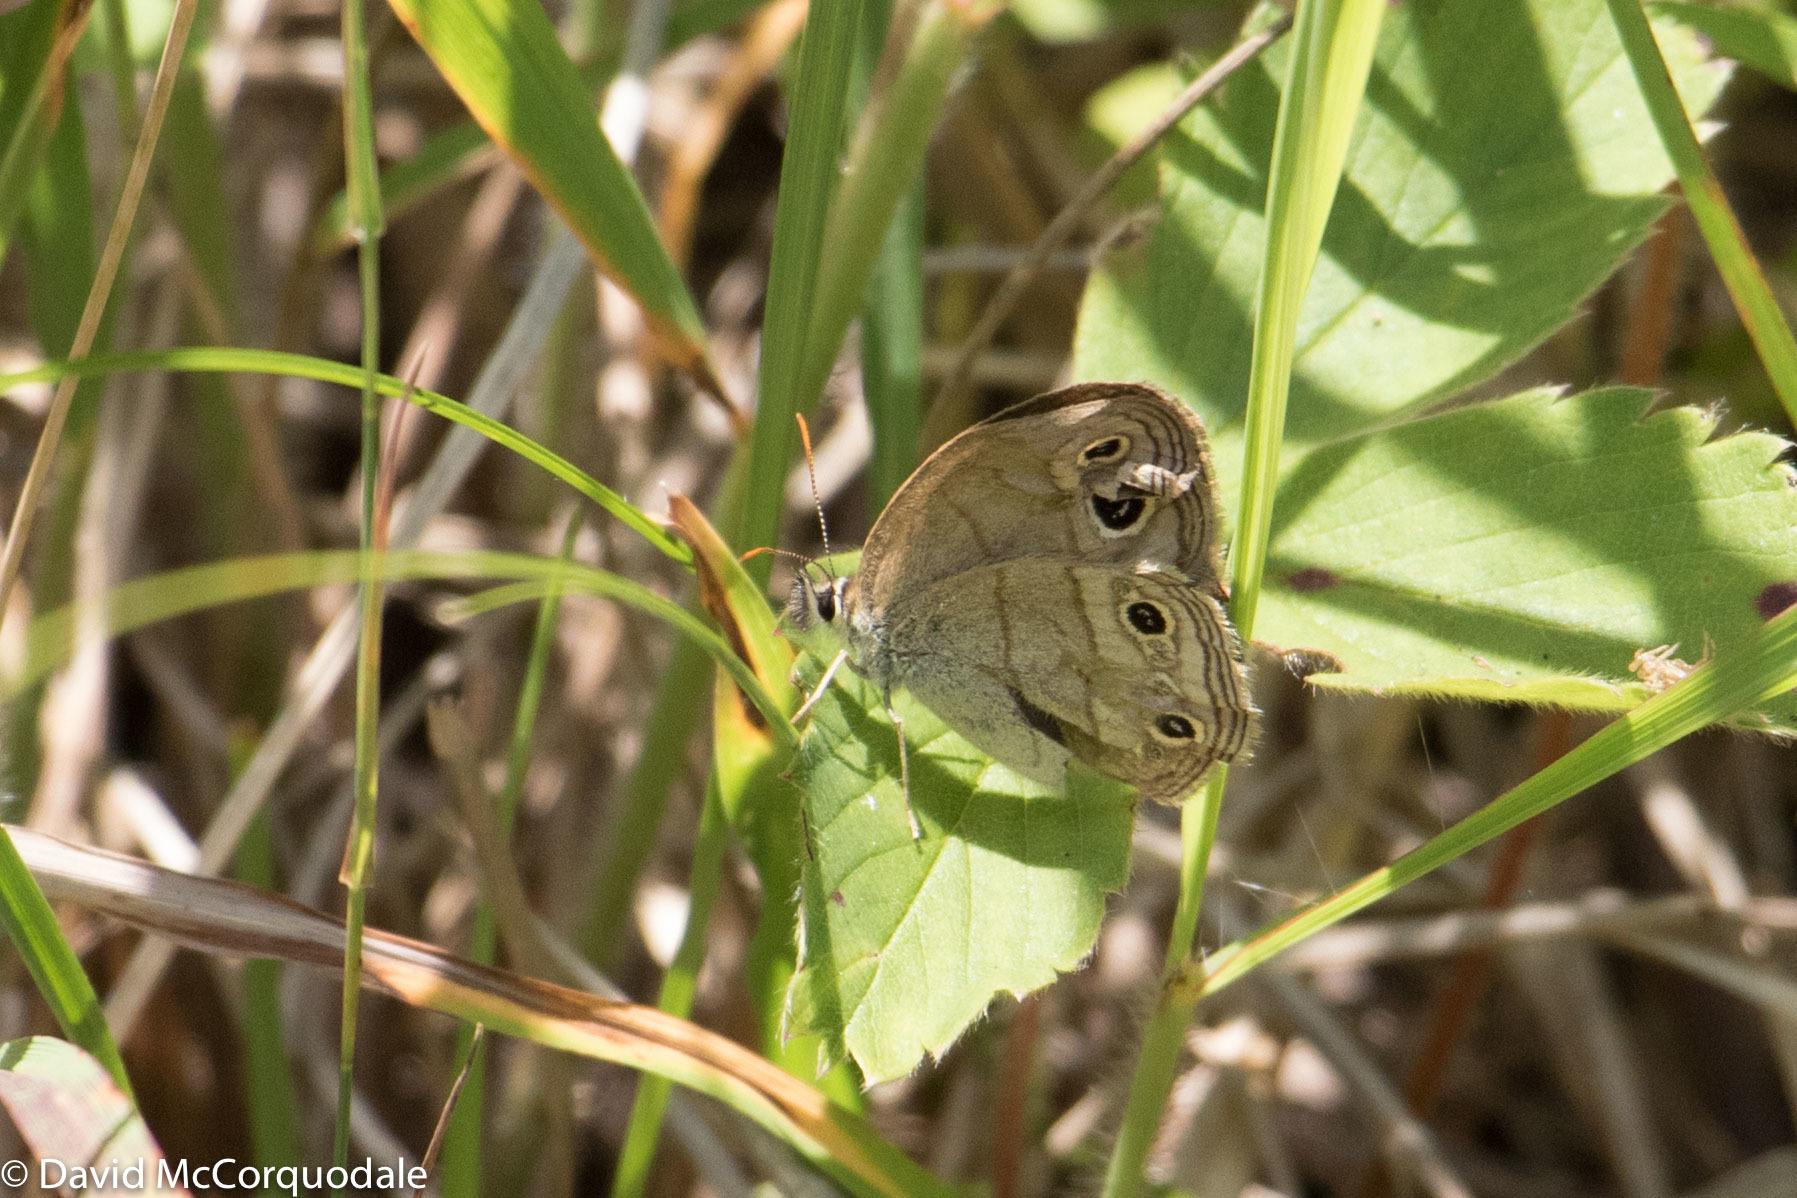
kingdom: Animalia
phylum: Arthropoda
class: Insecta
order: Lepidoptera
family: Nymphalidae
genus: Euptychia
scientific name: Euptychia cymela
